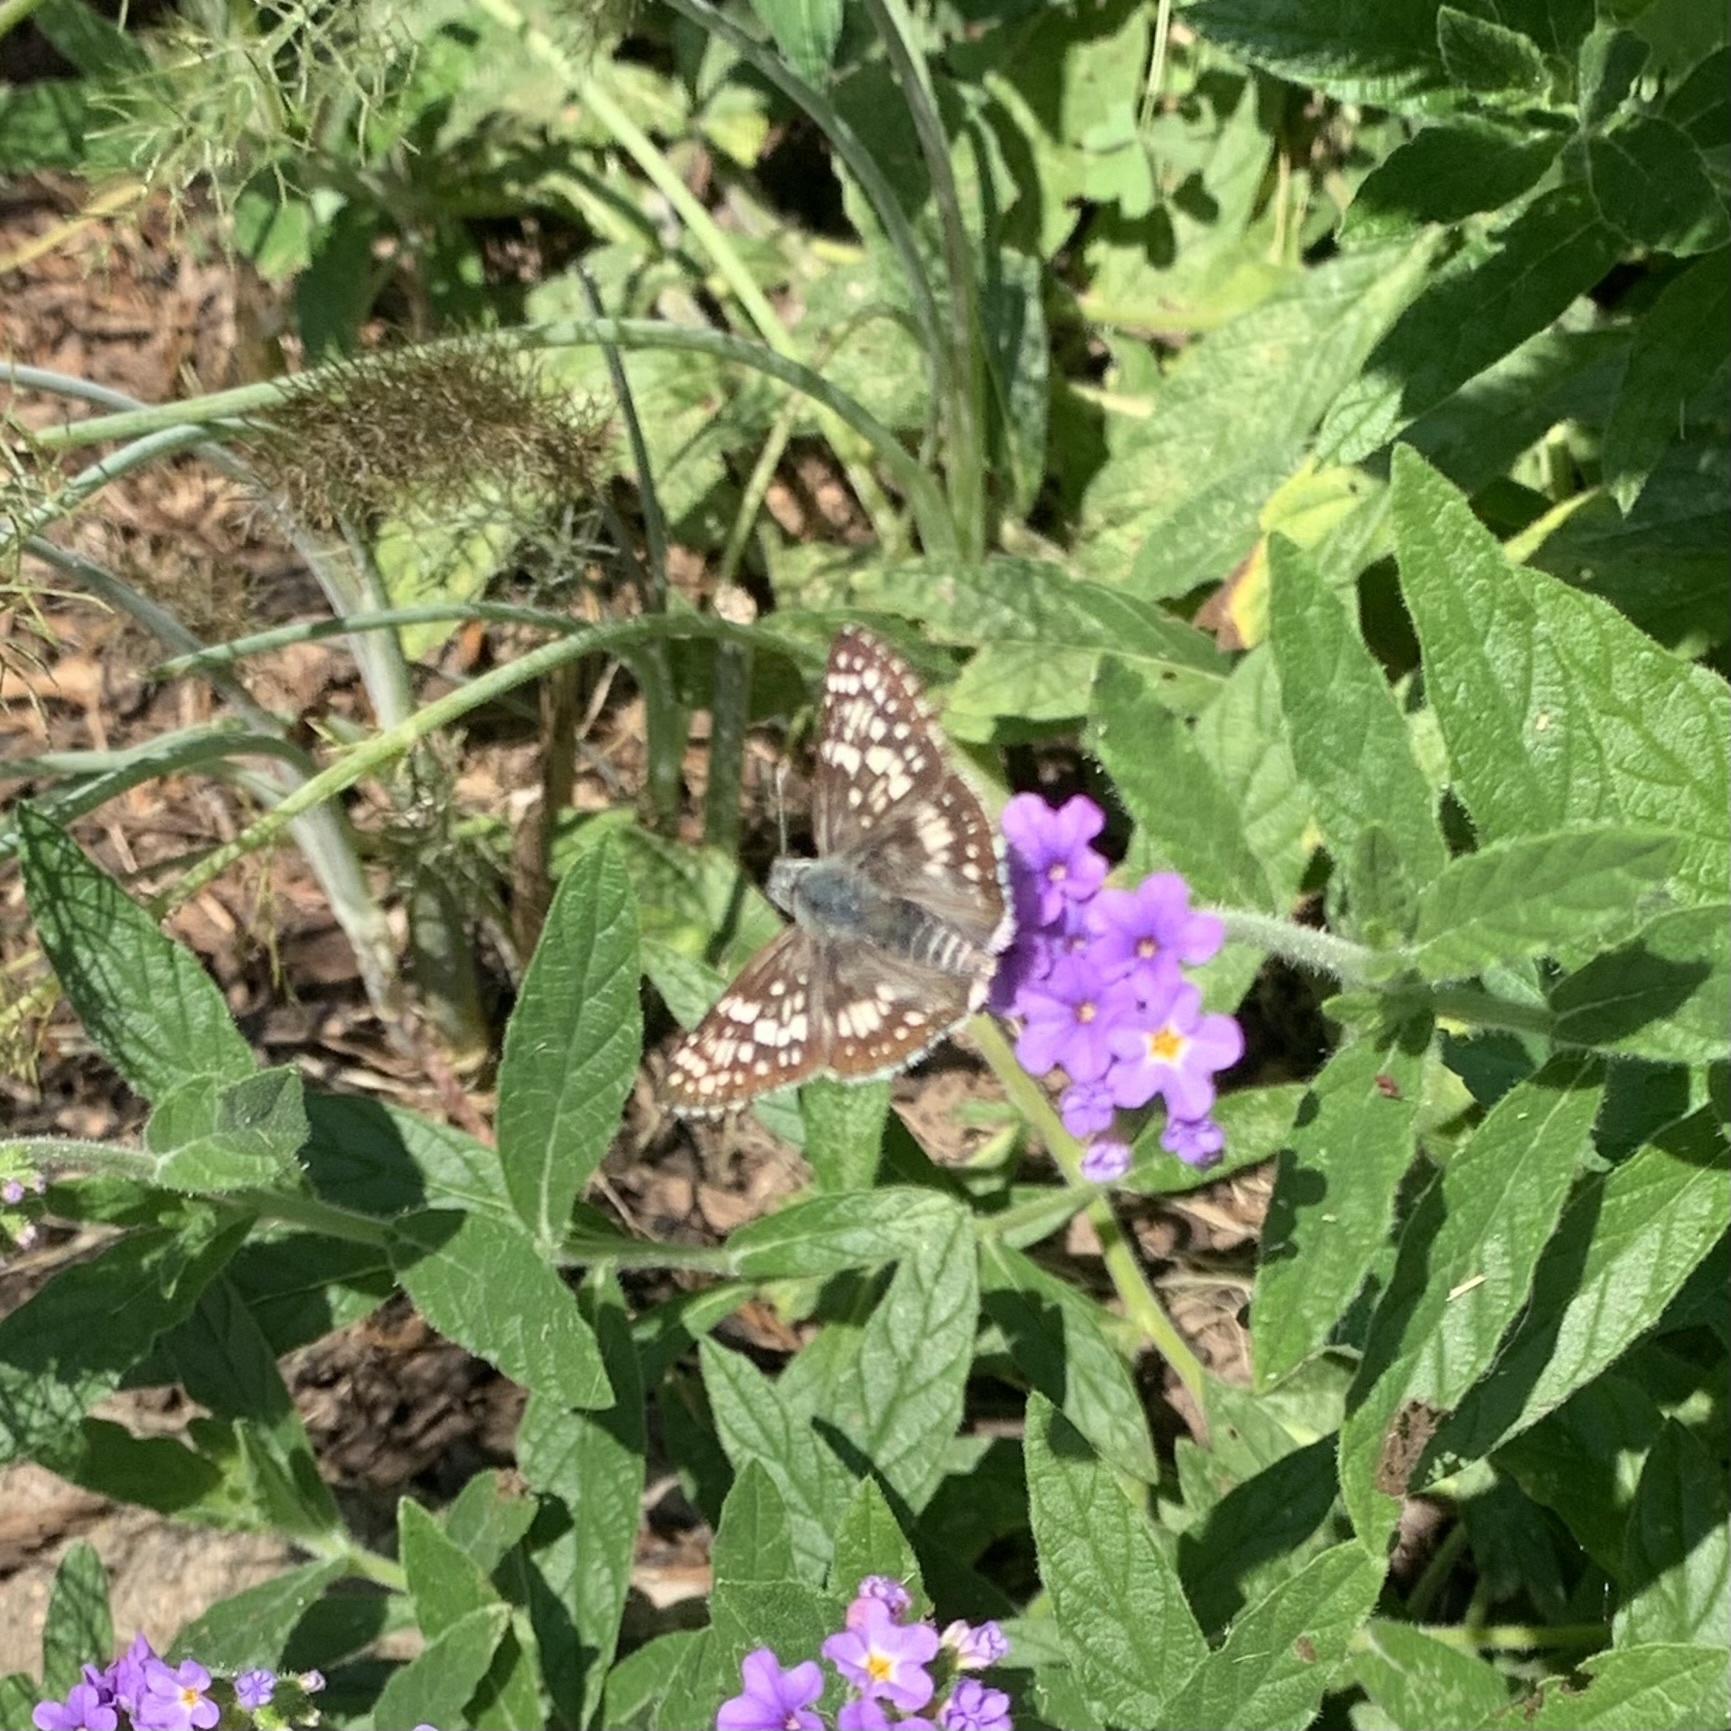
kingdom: Animalia
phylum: Arthropoda
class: Insecta
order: Lepidoptera
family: Hesperiidae
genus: Burnsius
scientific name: Burnsius communis
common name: Common checkered-skipper
